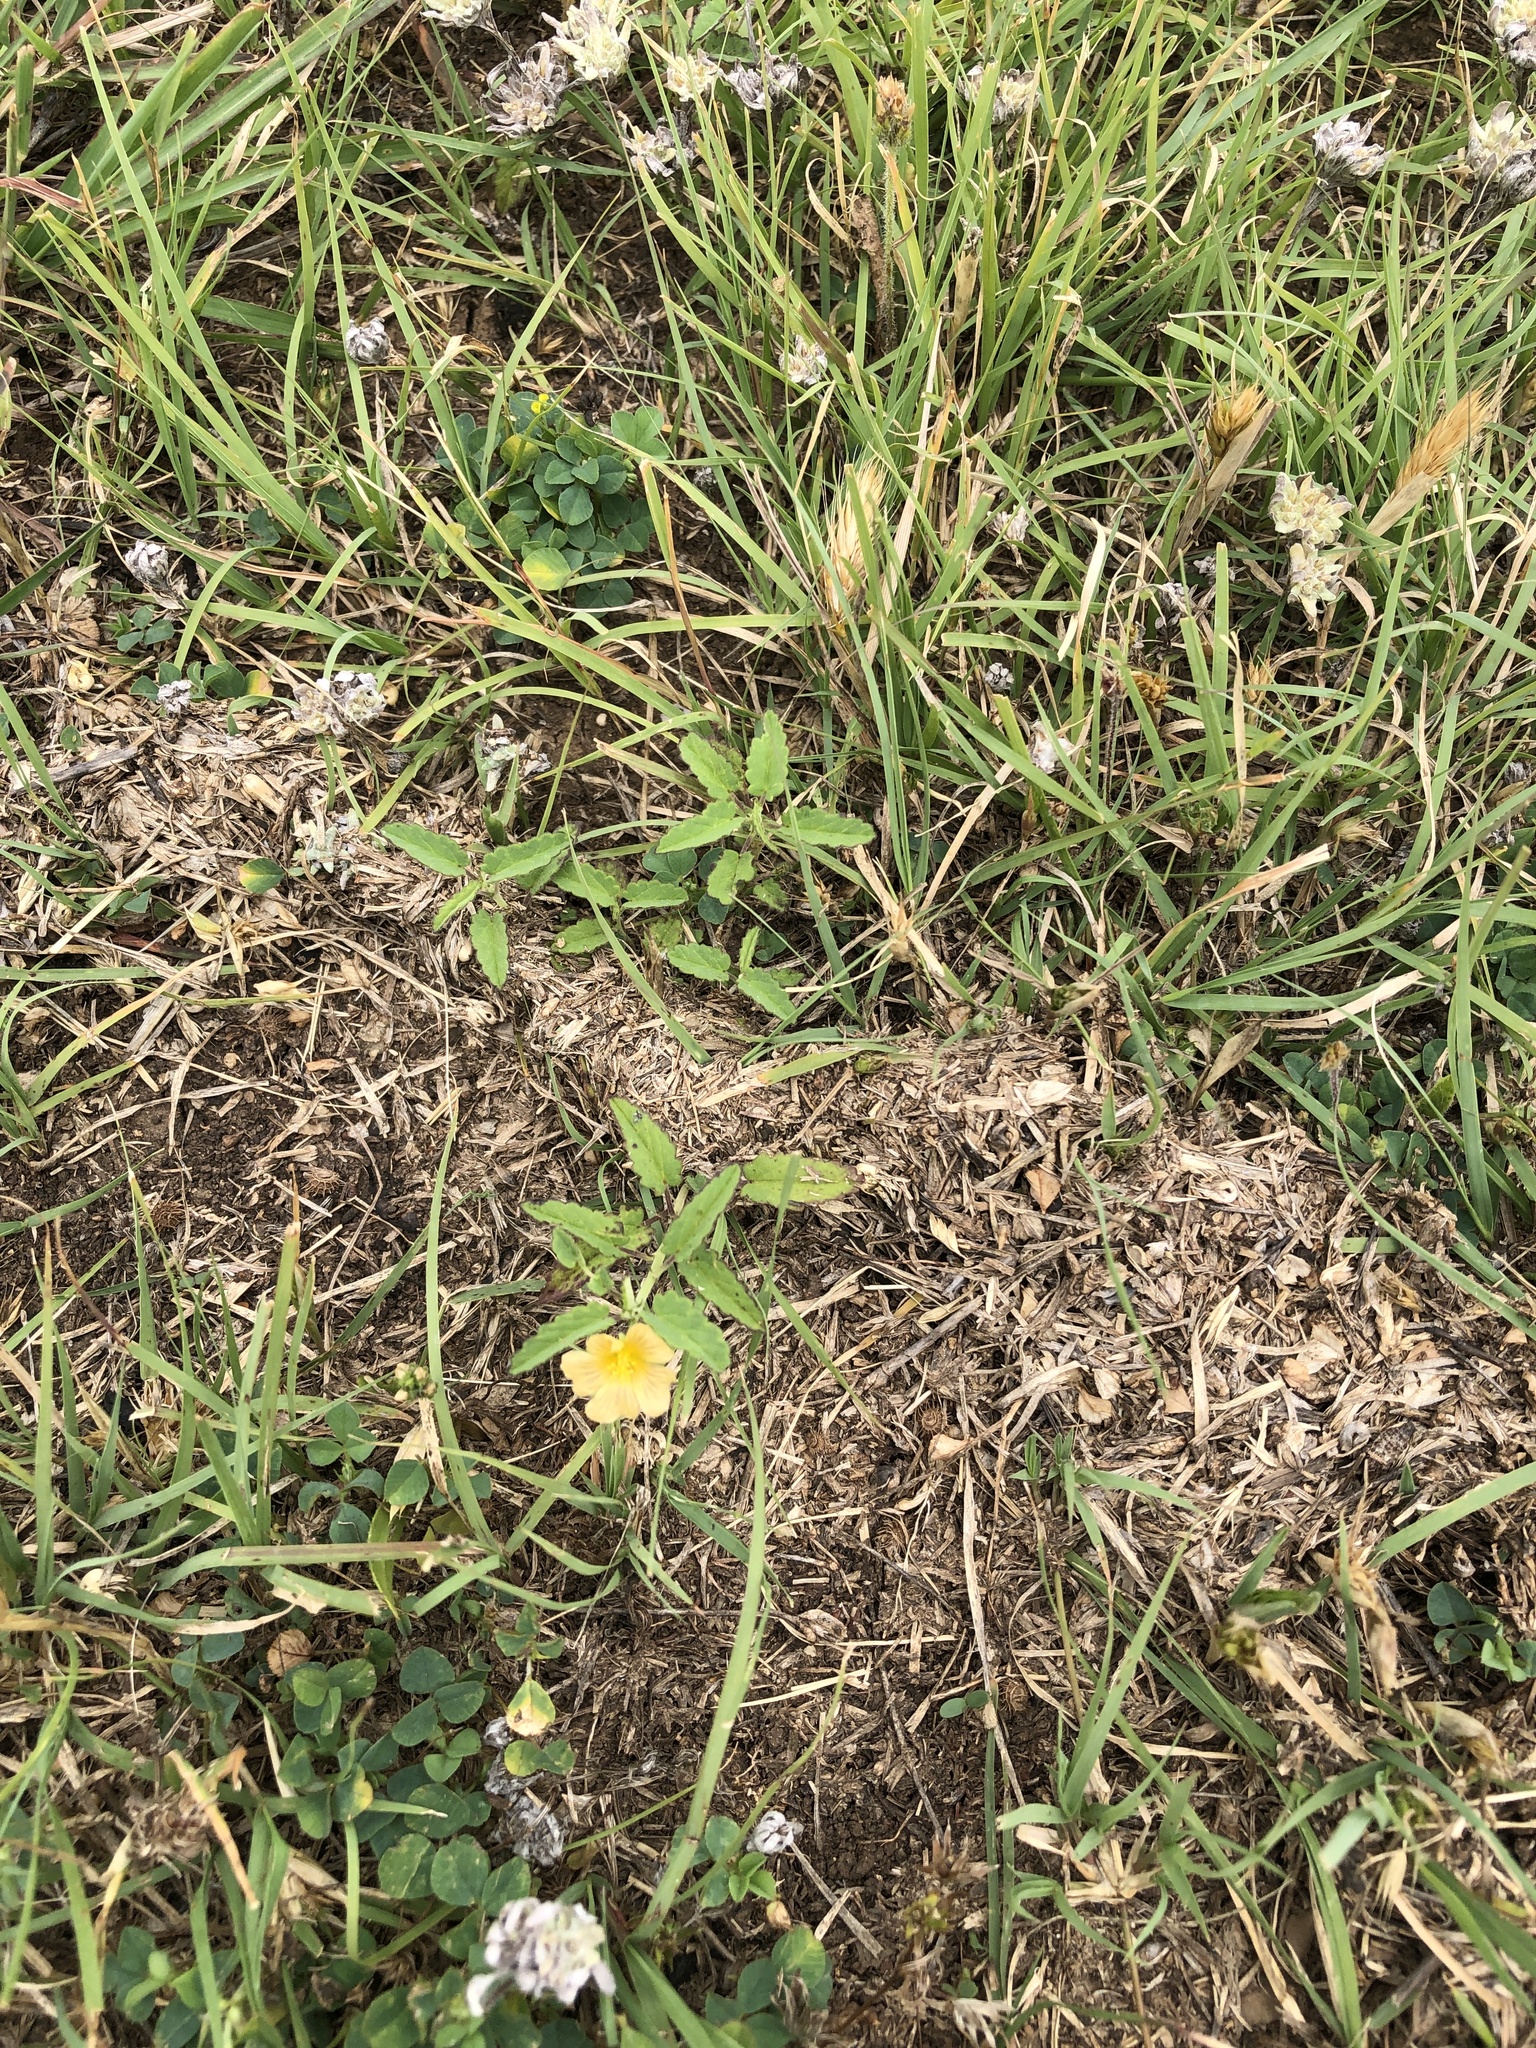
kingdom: Plantae
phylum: Tracheophyta
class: Magnoliopsida
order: Malvales
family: Malvaceae
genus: Sida
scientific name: Sida abutilifolia
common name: Spreading fanpetals
